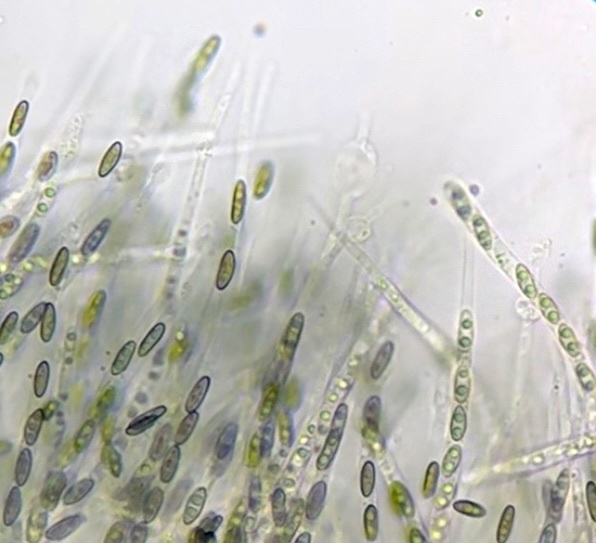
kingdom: Fungi
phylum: Ascomycota
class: Sordariomycetes
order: Xylariales
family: Lopadostomataceae
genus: Creosphaeria
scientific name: Creosphaeria sassafras
